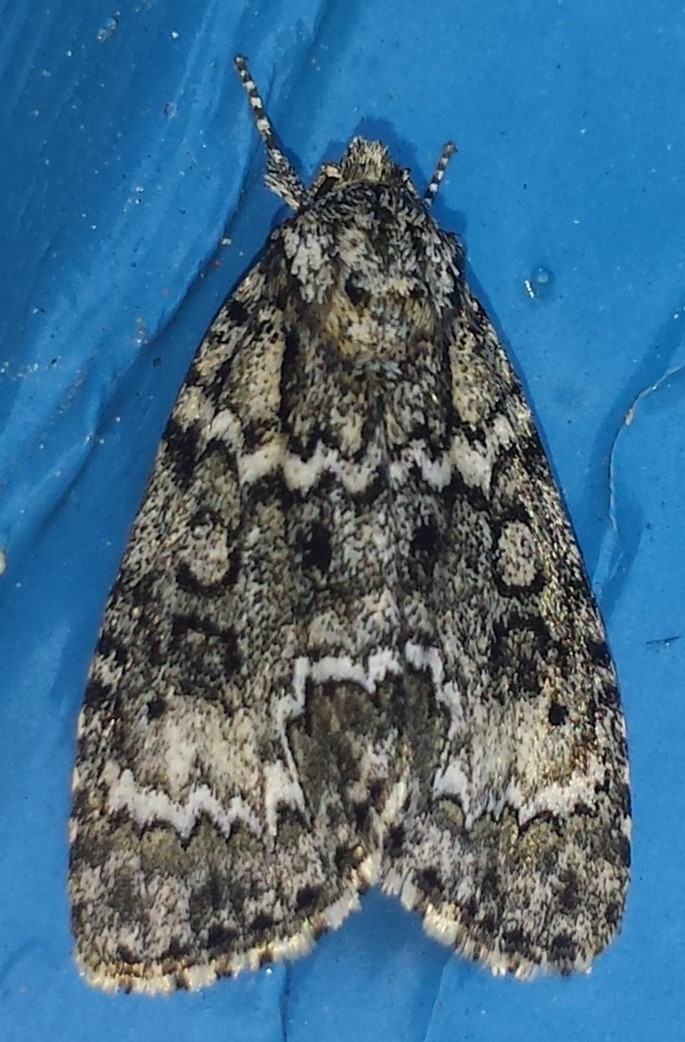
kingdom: Animalia
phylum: Arthropoda
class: Insecta
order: Lepidoptera
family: Noctuidae
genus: Acronicta
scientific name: Acronicta fragilis
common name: Fragile dagger
